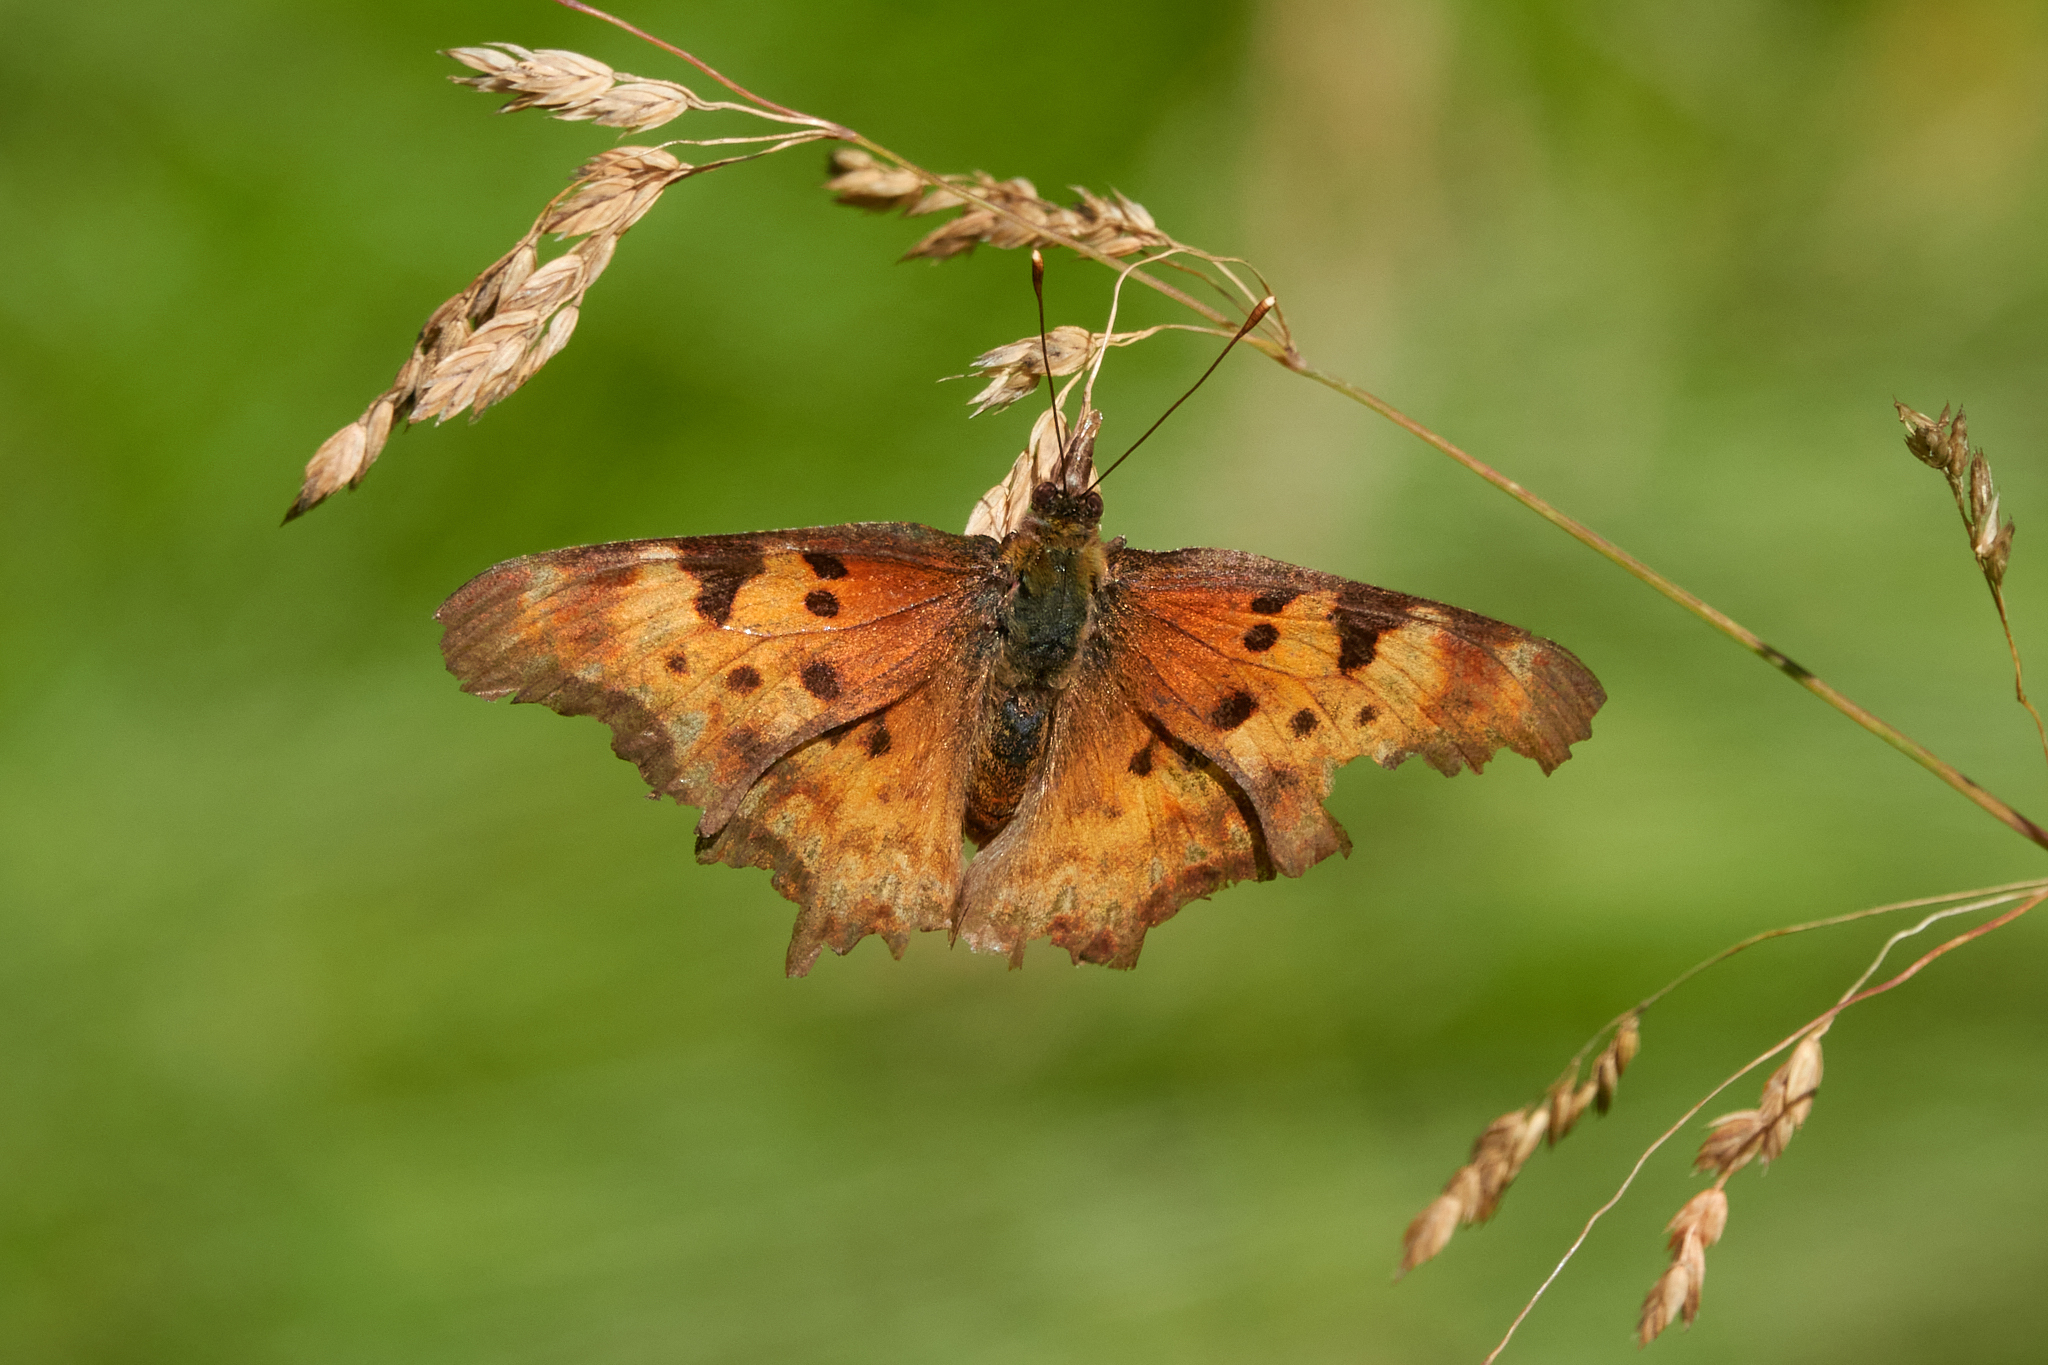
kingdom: Animalia
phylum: Arthropoda
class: Insecta
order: Lepidoptera
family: Nymphalidae
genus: Polygonia
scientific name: Polygonia gracilis
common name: Hoary comma
